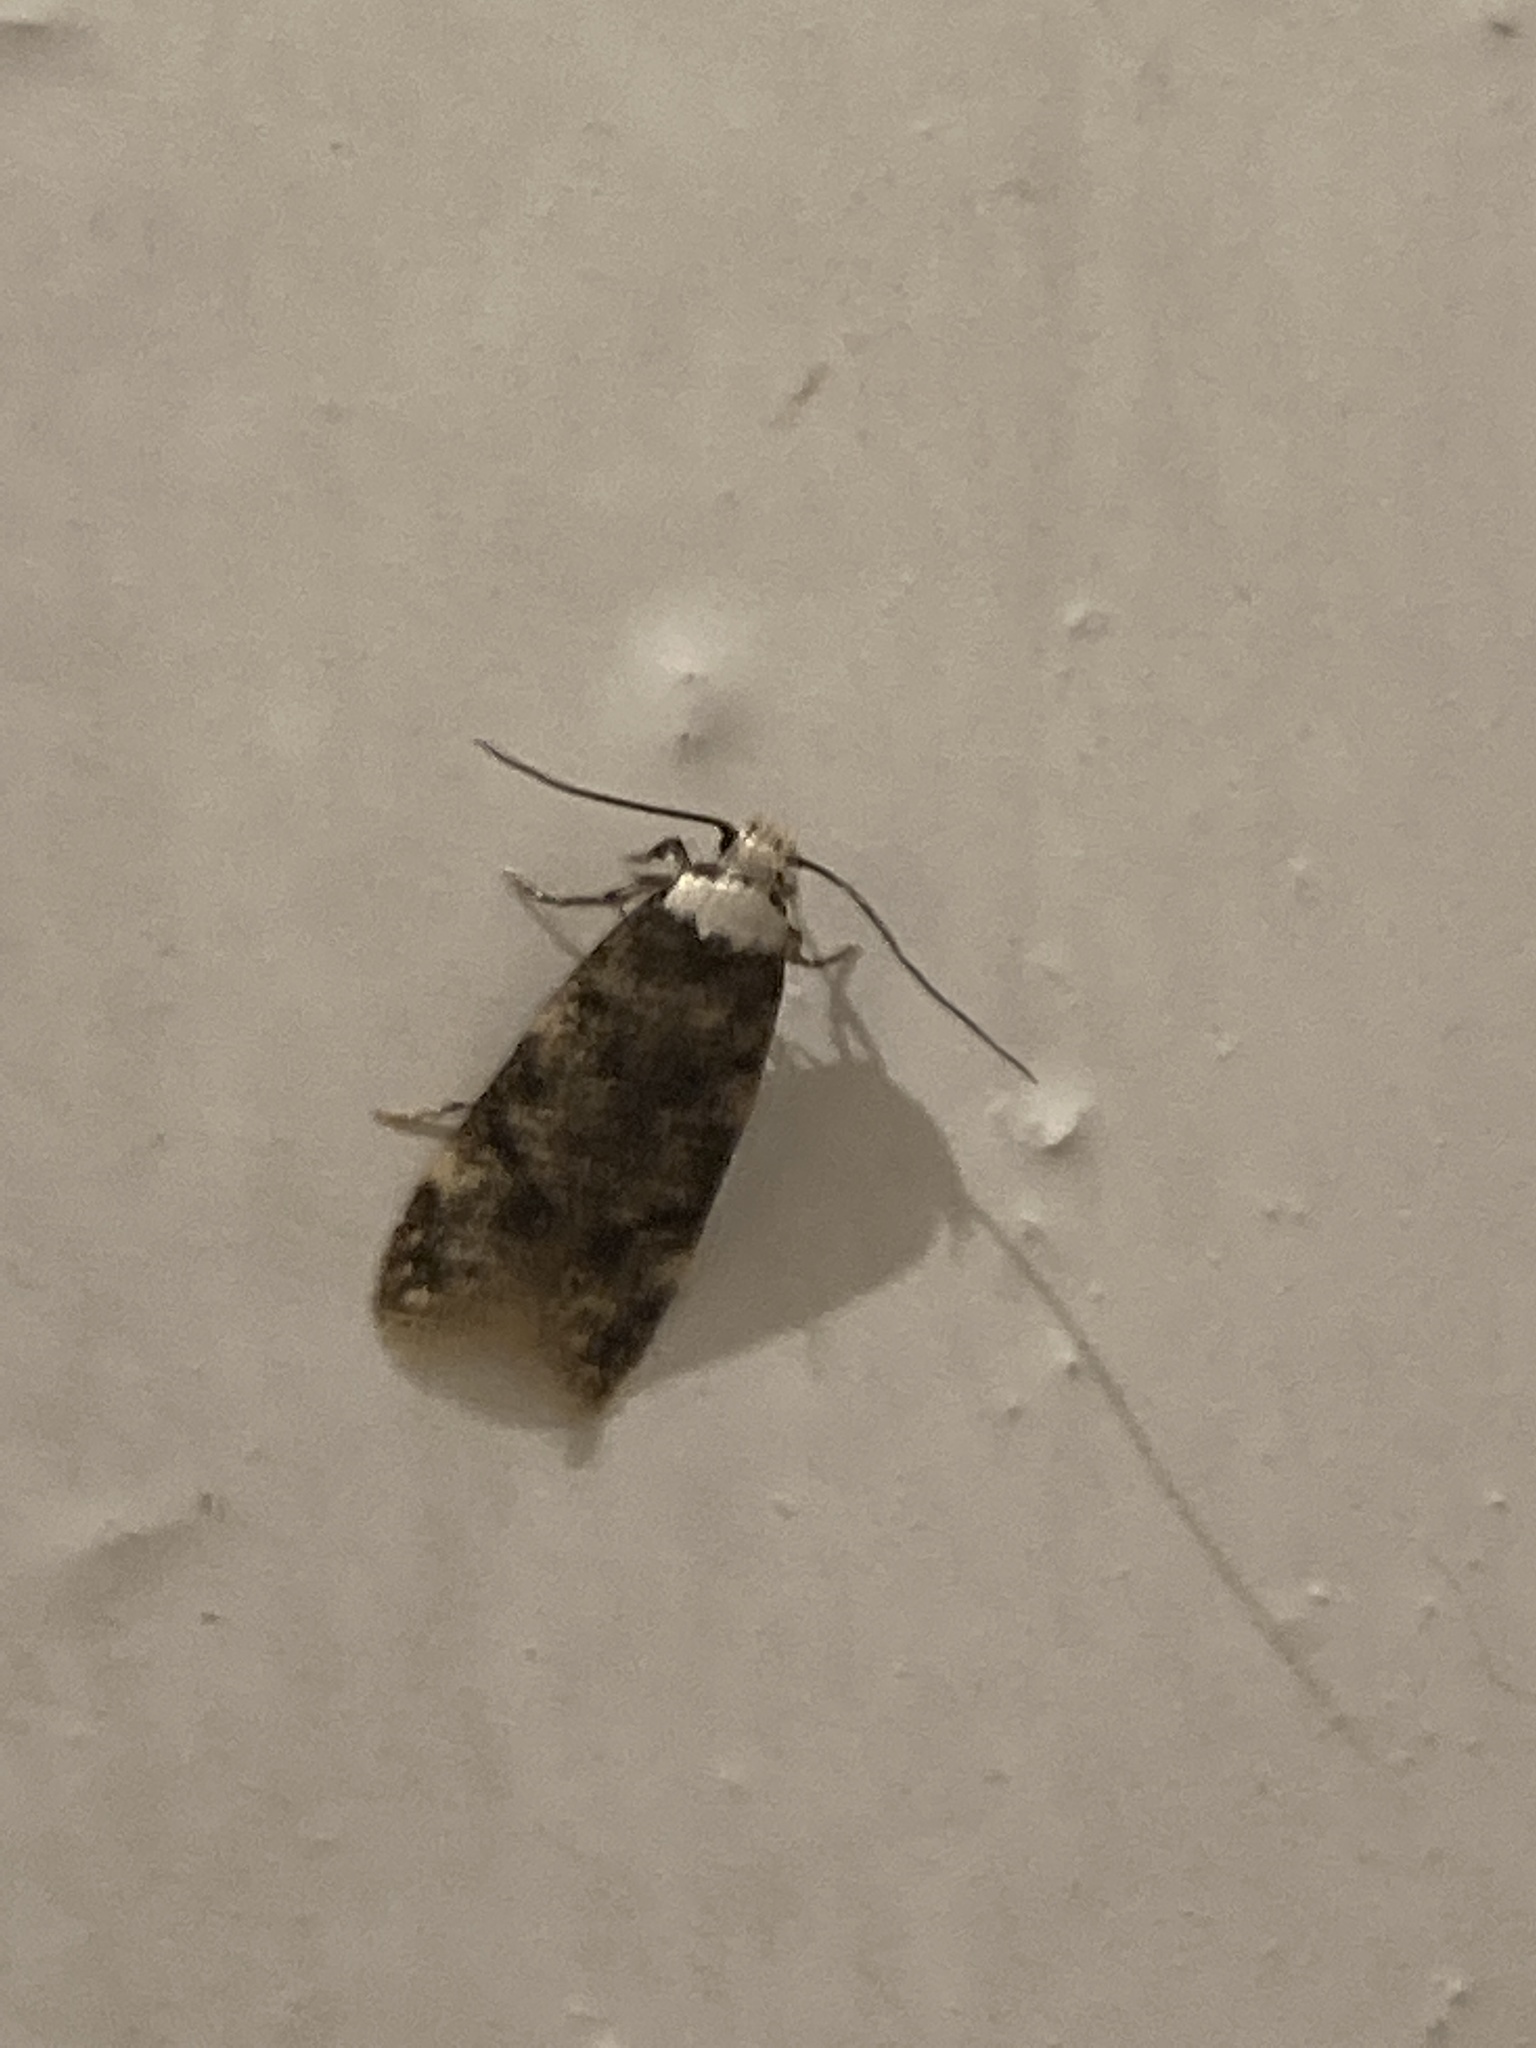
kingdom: Animalia
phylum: Arthropoda
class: Insecta
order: Lepidoptera
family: Oecophoridae
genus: Endrosis
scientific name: Endrosis sarcitrella
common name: White-shouldered house moth
